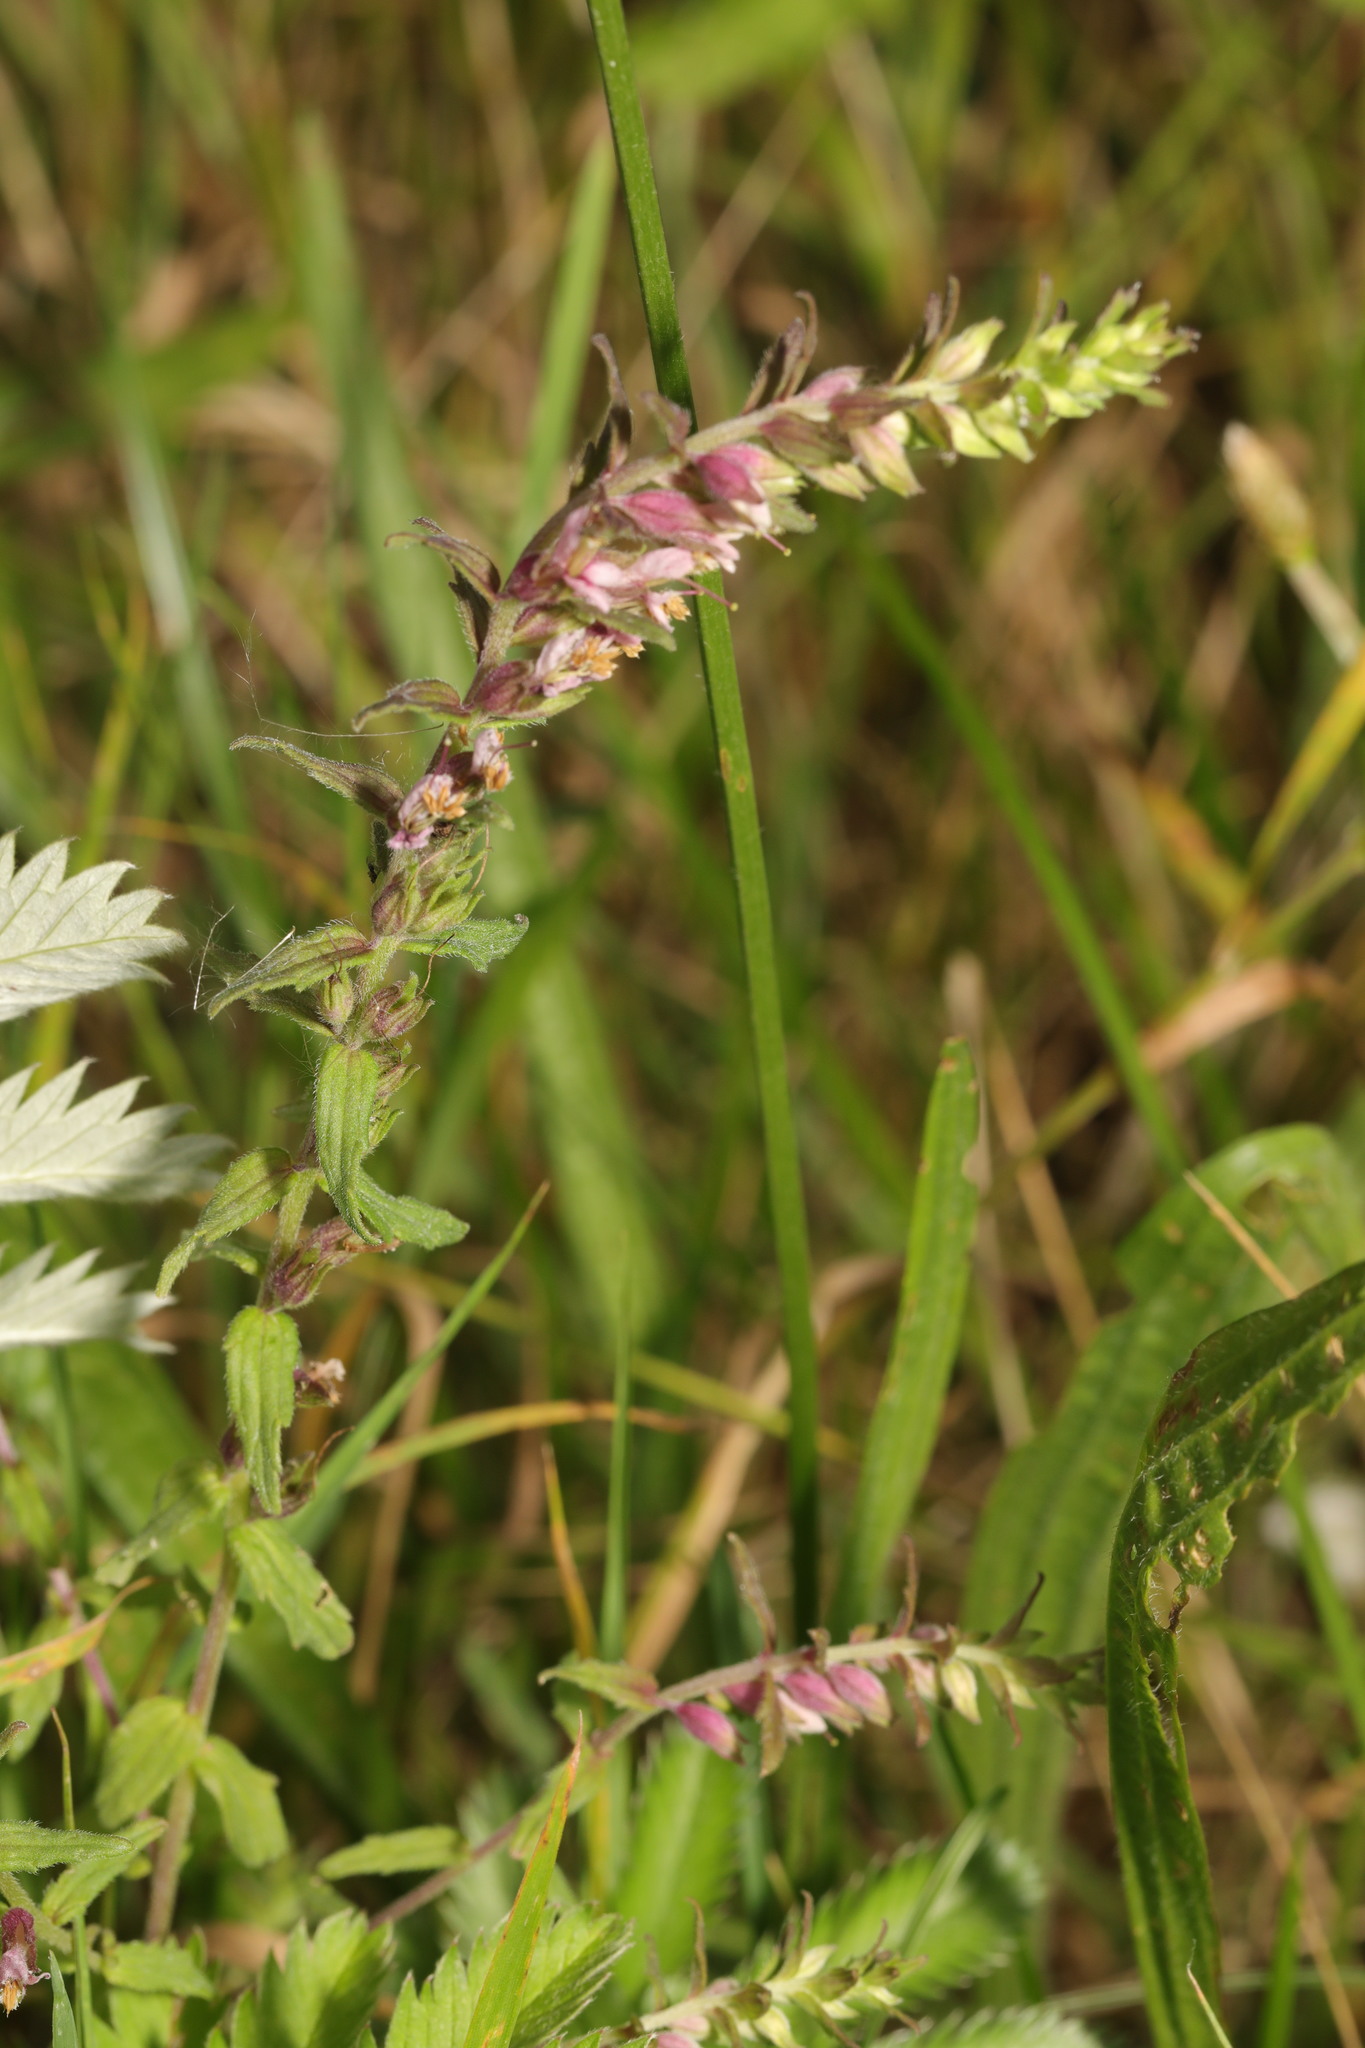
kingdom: Plantae
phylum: Tracheophyta
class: Magnoliopsida
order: Lamiales
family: Orobanchaceae
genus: Odontites
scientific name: Odontites vulgaris
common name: Broomrape
